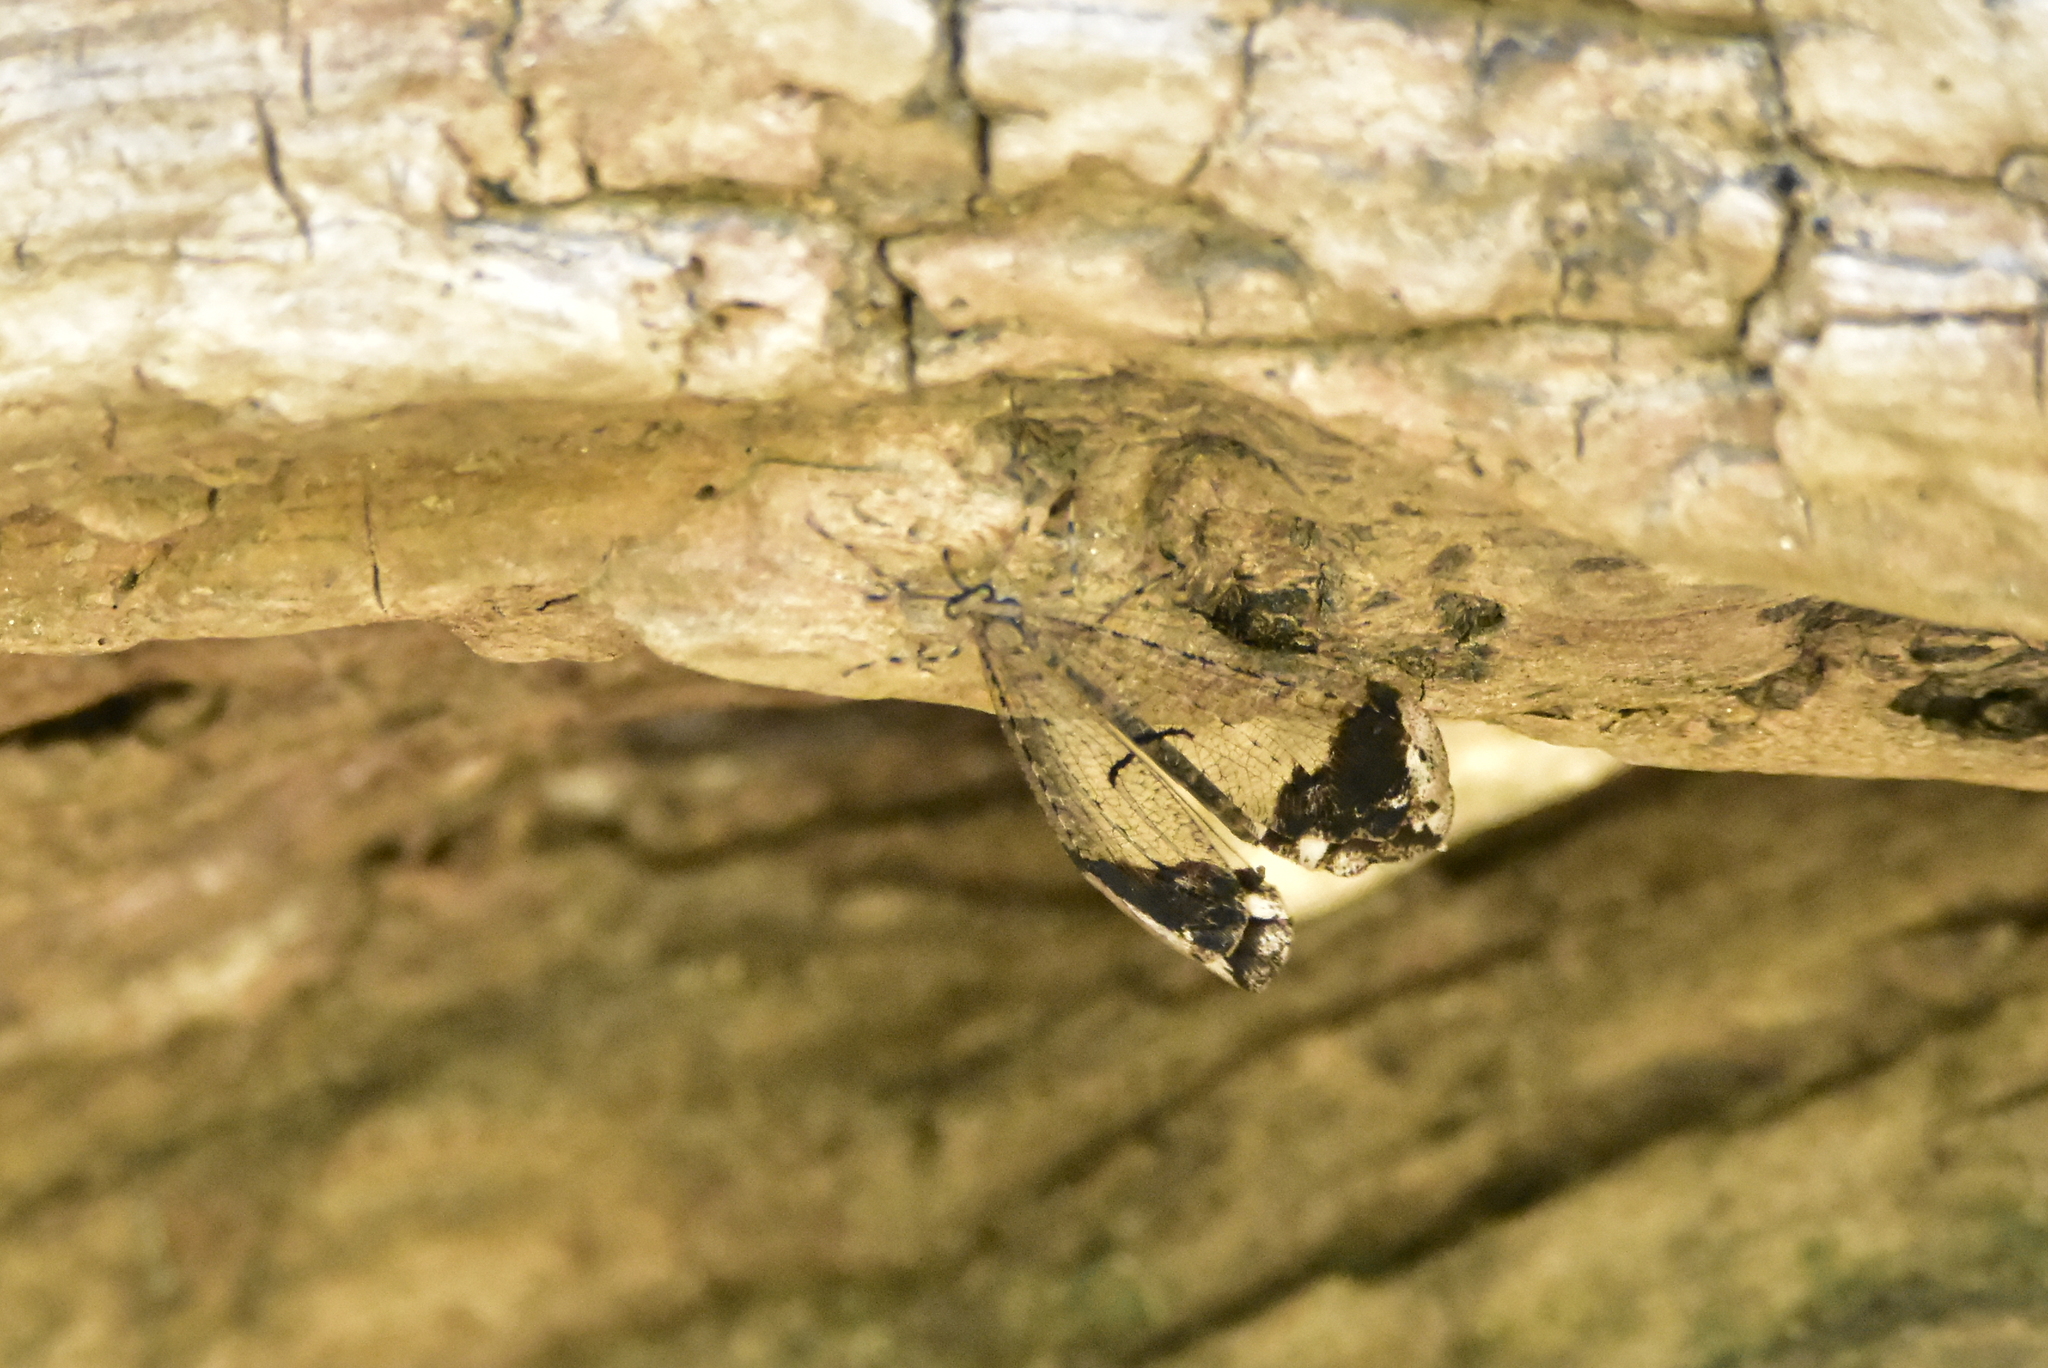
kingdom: Animalia
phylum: Arthropoda
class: Insecta
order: Neuroptera
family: Myrmeleontidae
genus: Glenurus
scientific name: Glenurus proi
